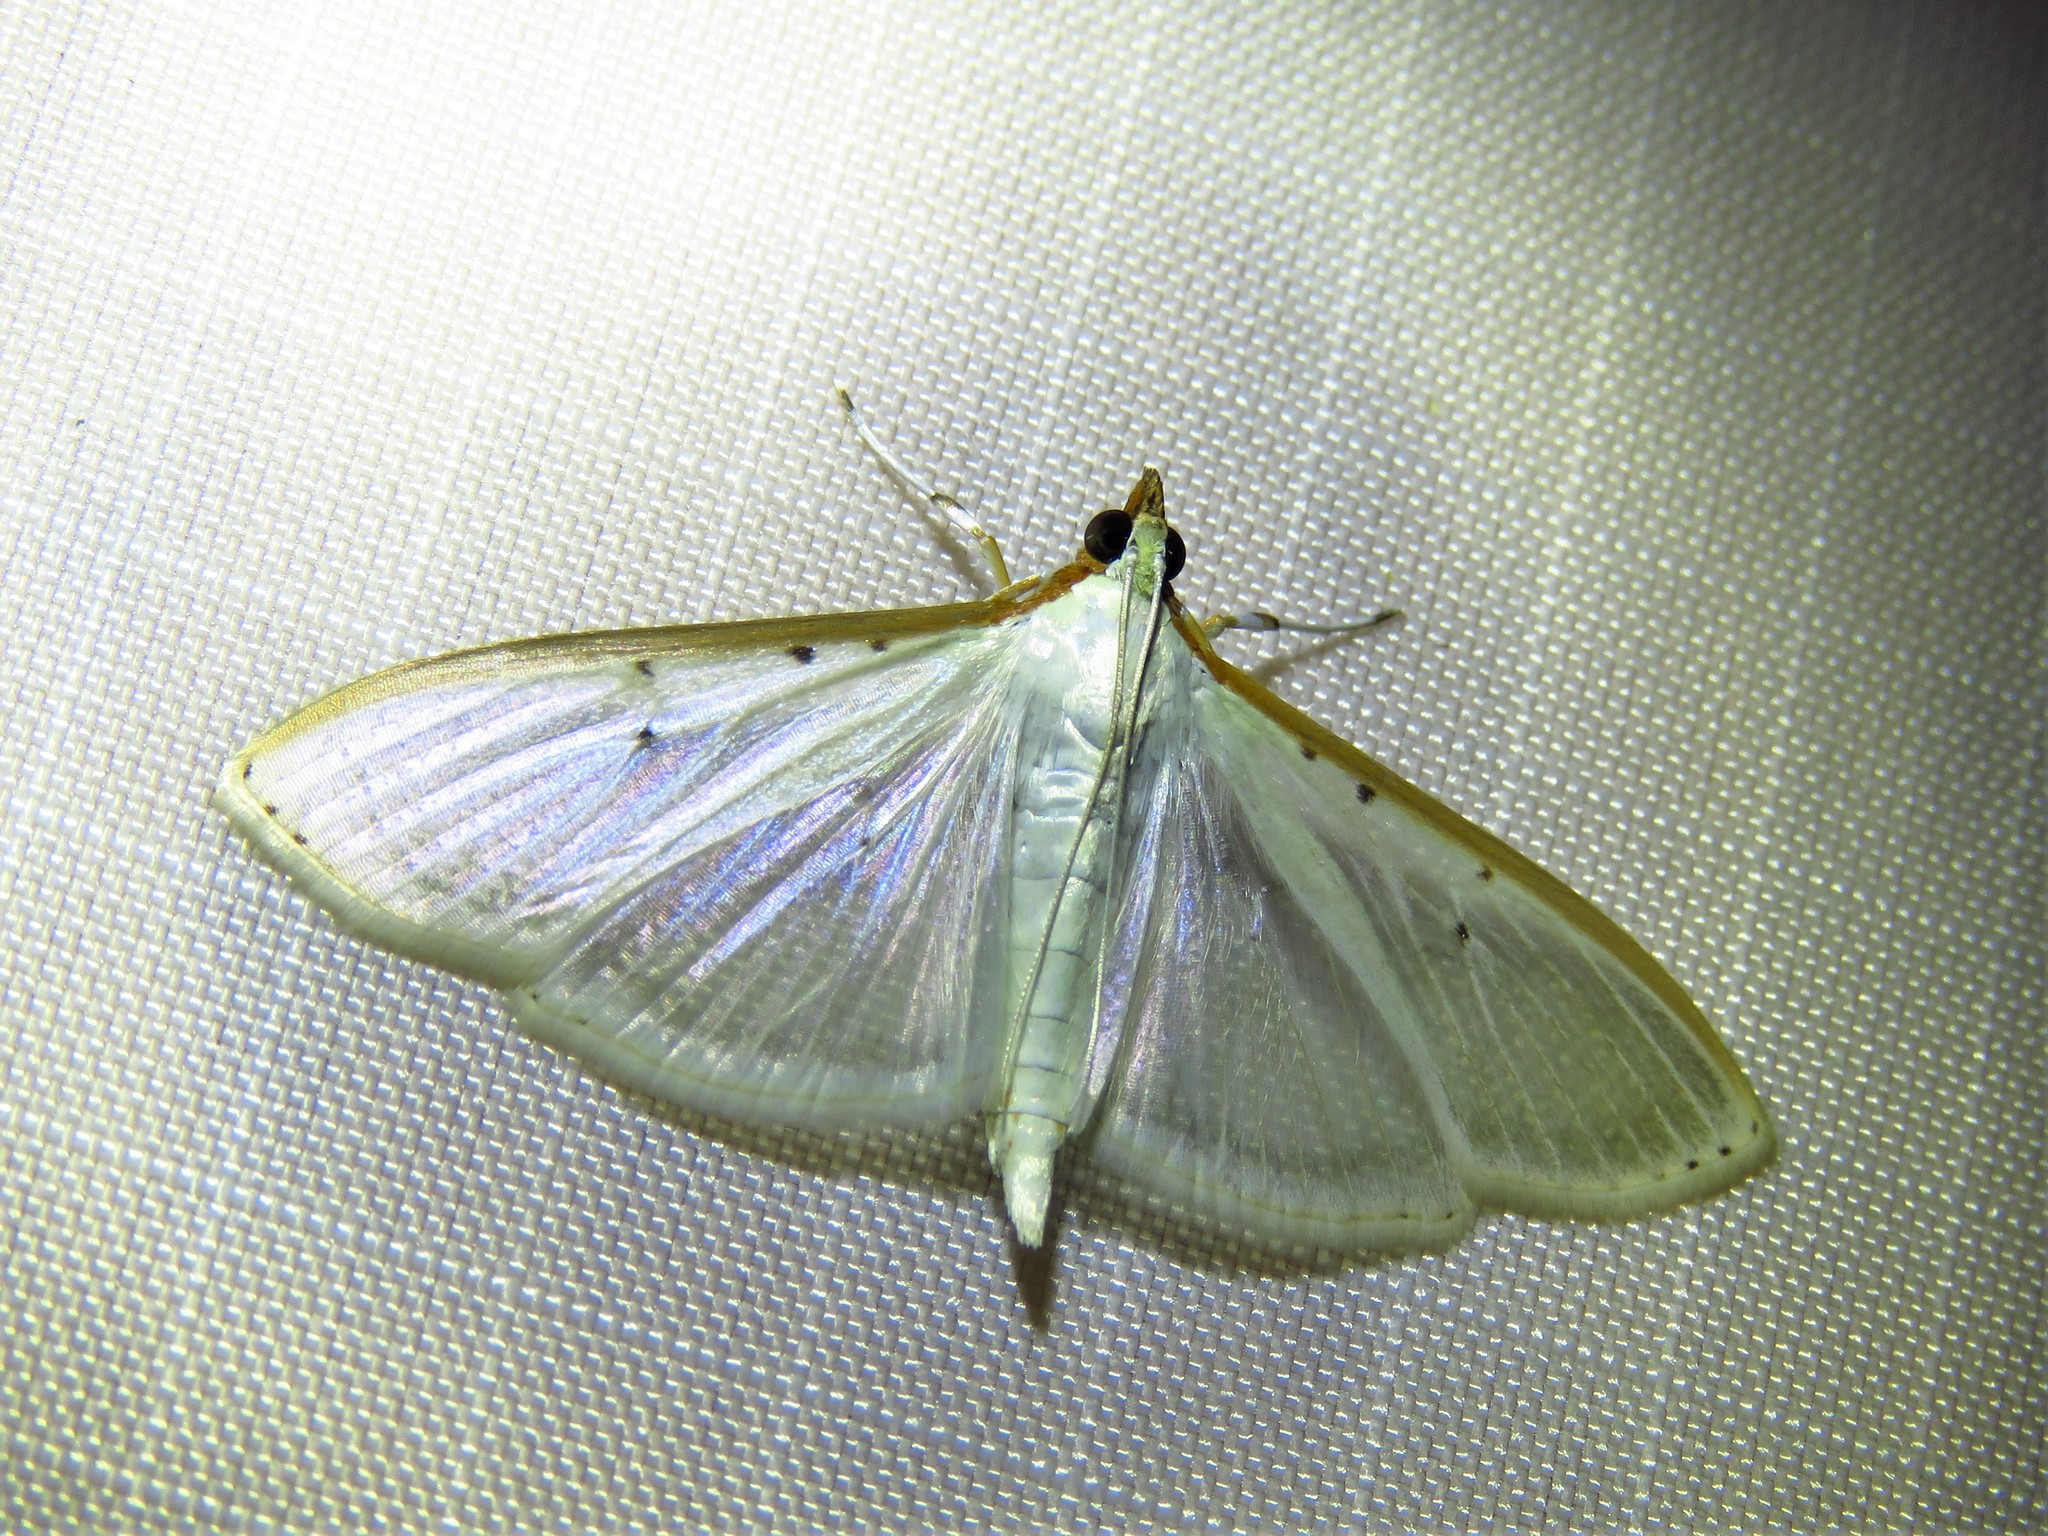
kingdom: Animalia
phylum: Arthropoda
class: Insecta
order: Lepidoptera
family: Crambidae
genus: Palpita
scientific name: Palpita quadristigmalis
